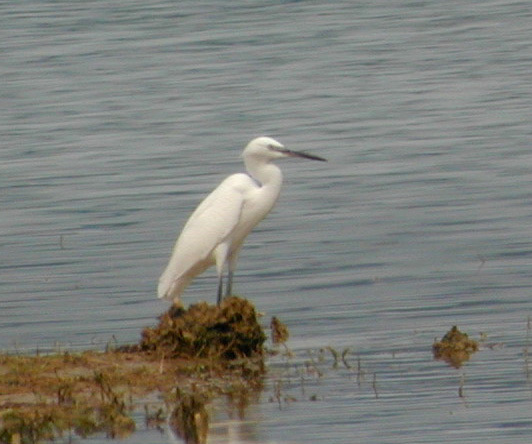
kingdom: Animalia
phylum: Chordata
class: Aves
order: Pelecaniformes
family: Ardeidae
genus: Egretta
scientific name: Egretta garzetta
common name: Little egret
